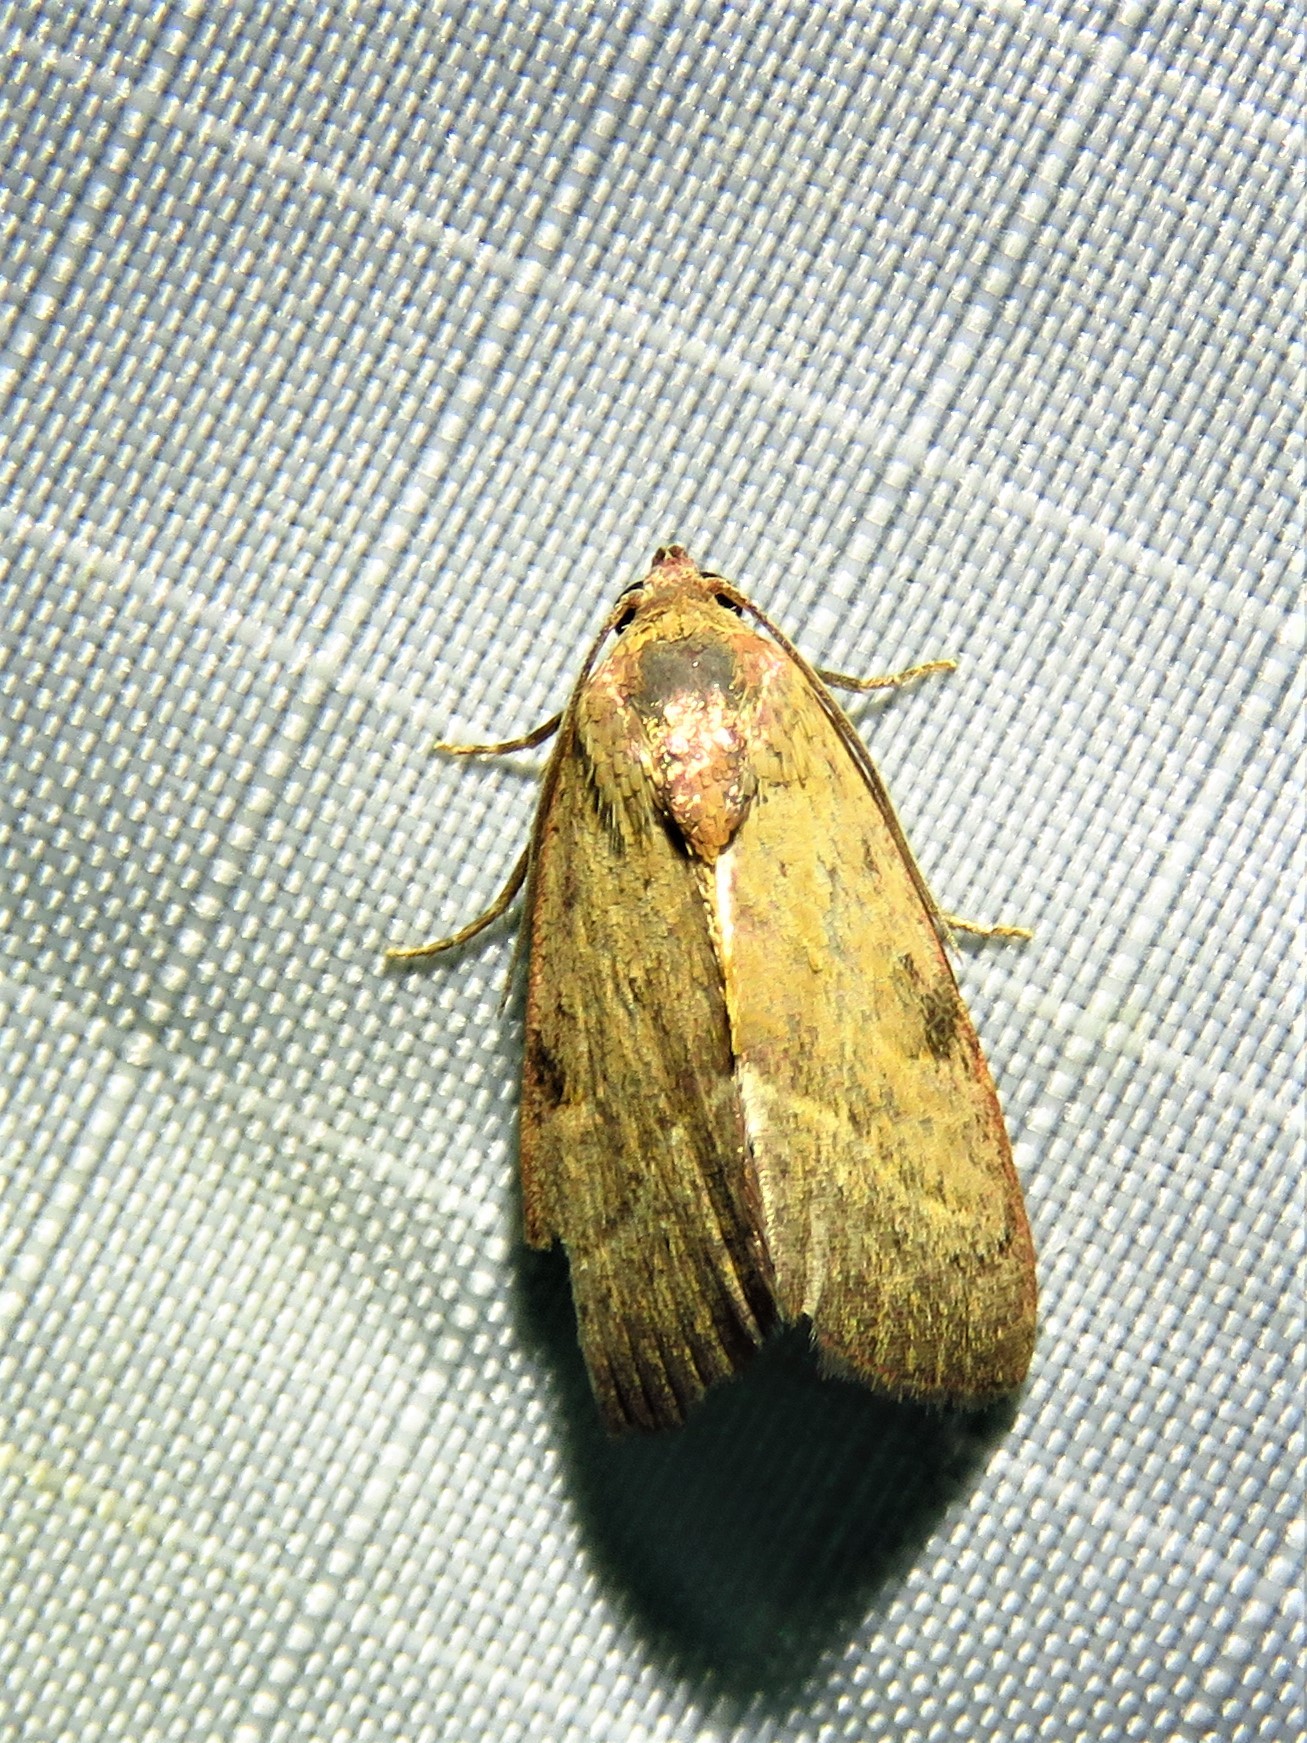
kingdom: Animalia
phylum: Arthropoda
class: Insecta
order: Lepidoptera
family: Noctuidae
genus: Galgula
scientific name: Galgula partita
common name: Wedgeling
